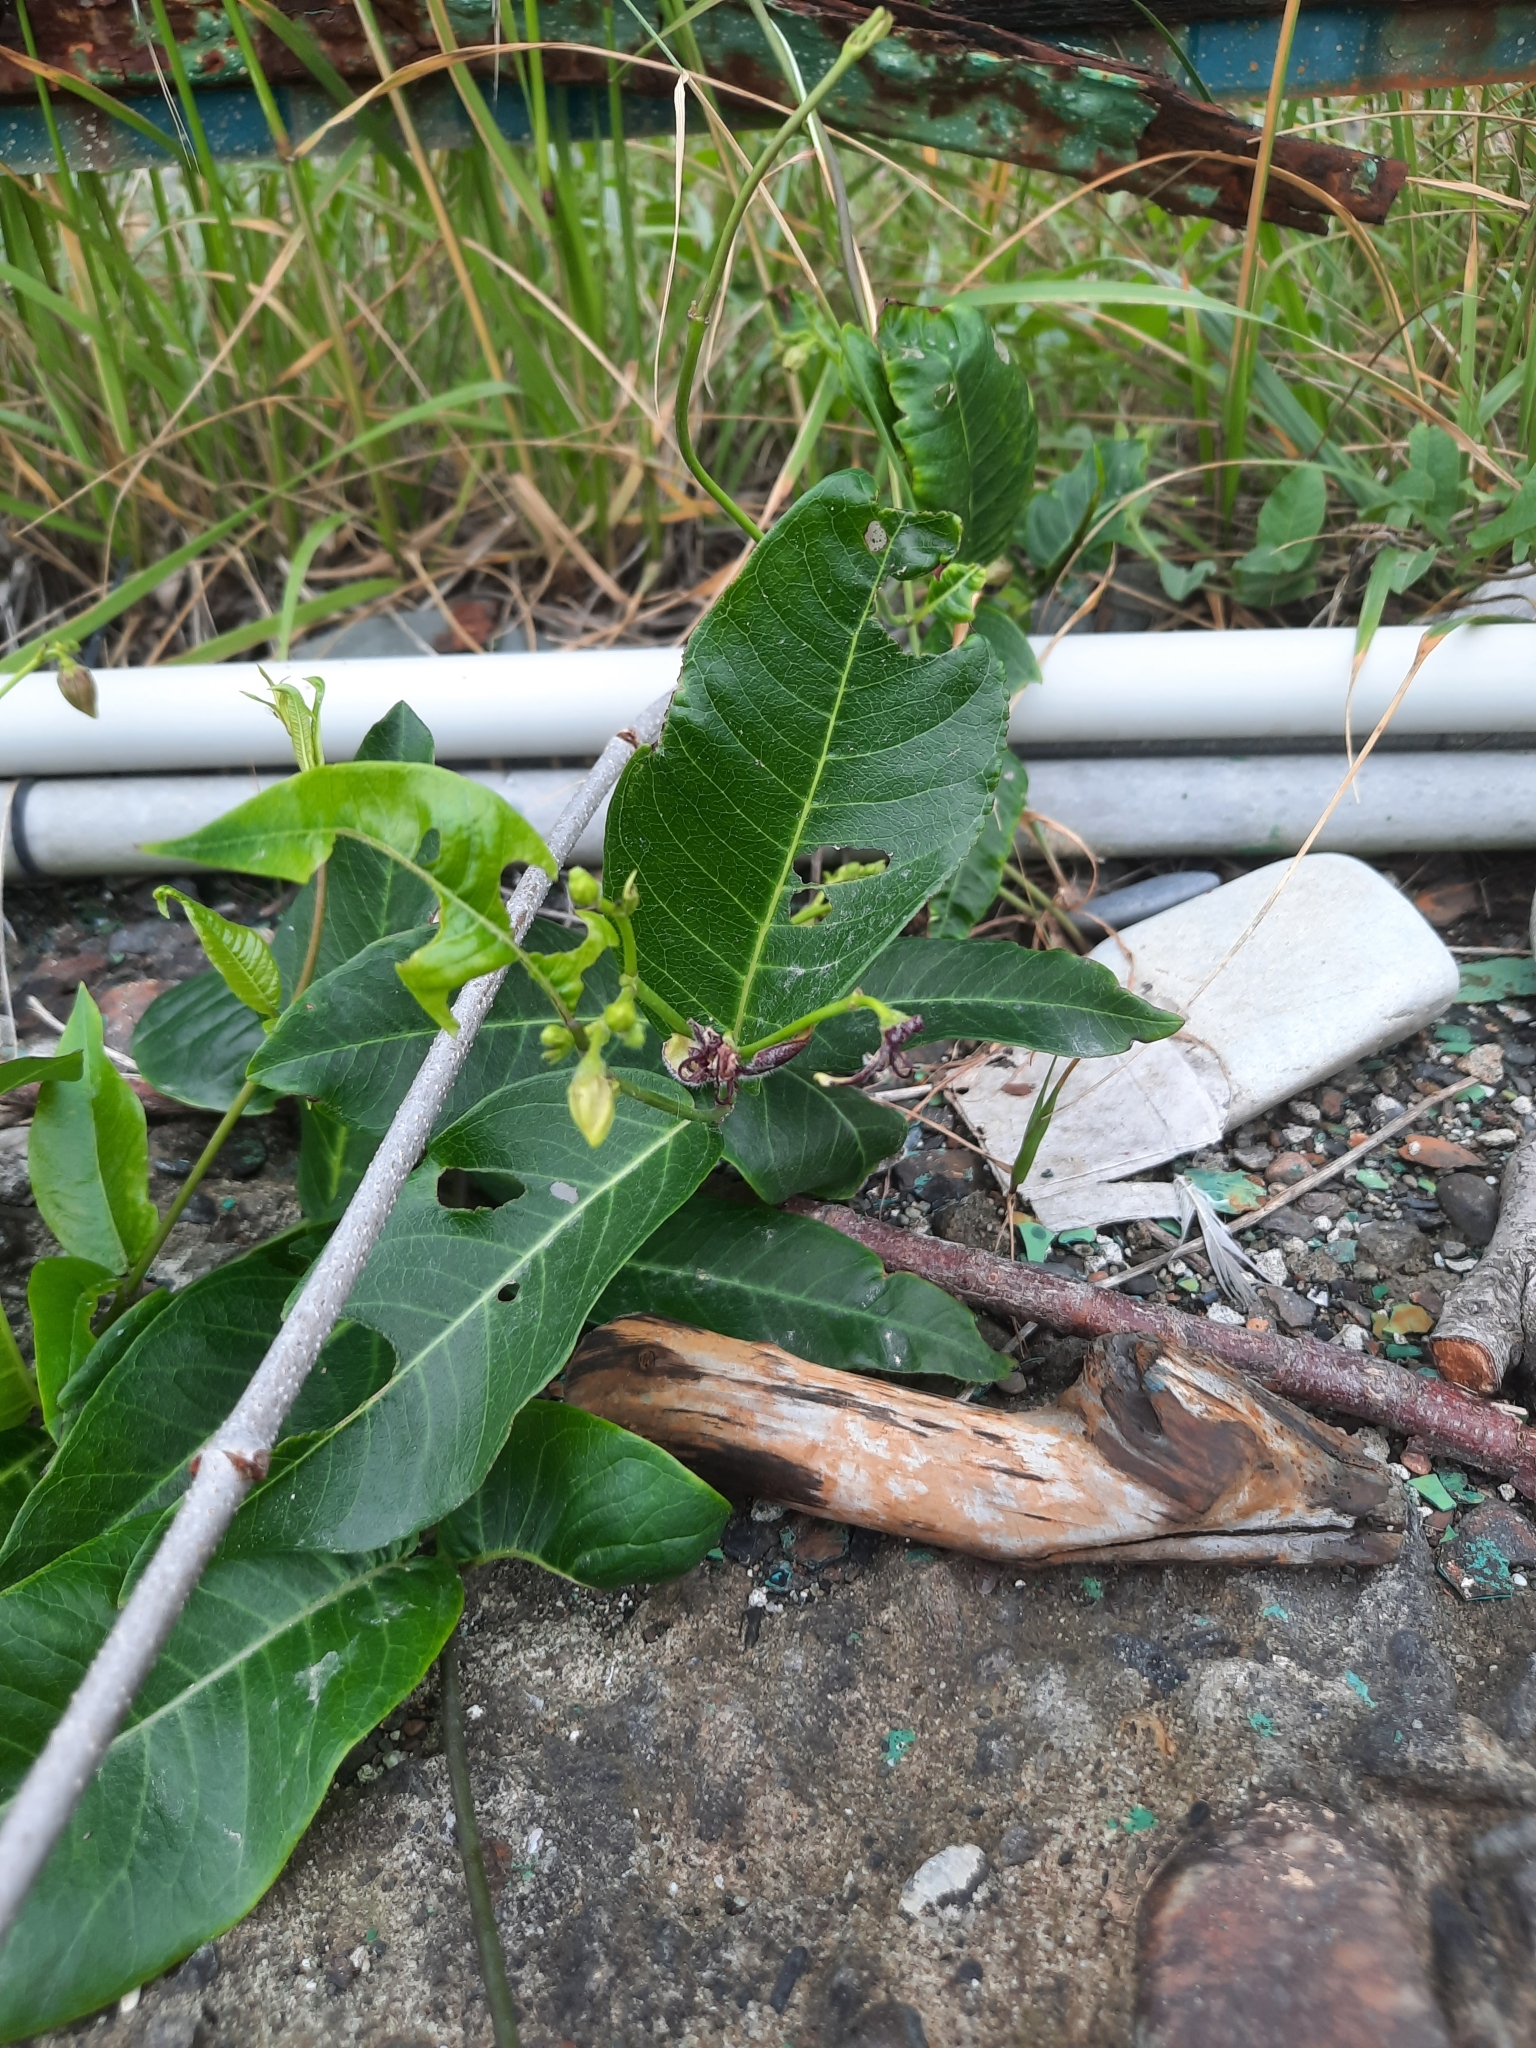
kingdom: Plantae
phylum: Tracheophyta
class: Magnoliopsida
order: Gentianales
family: Apocynaceae
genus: Periploca
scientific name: Periploca graeca
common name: Silkvine
